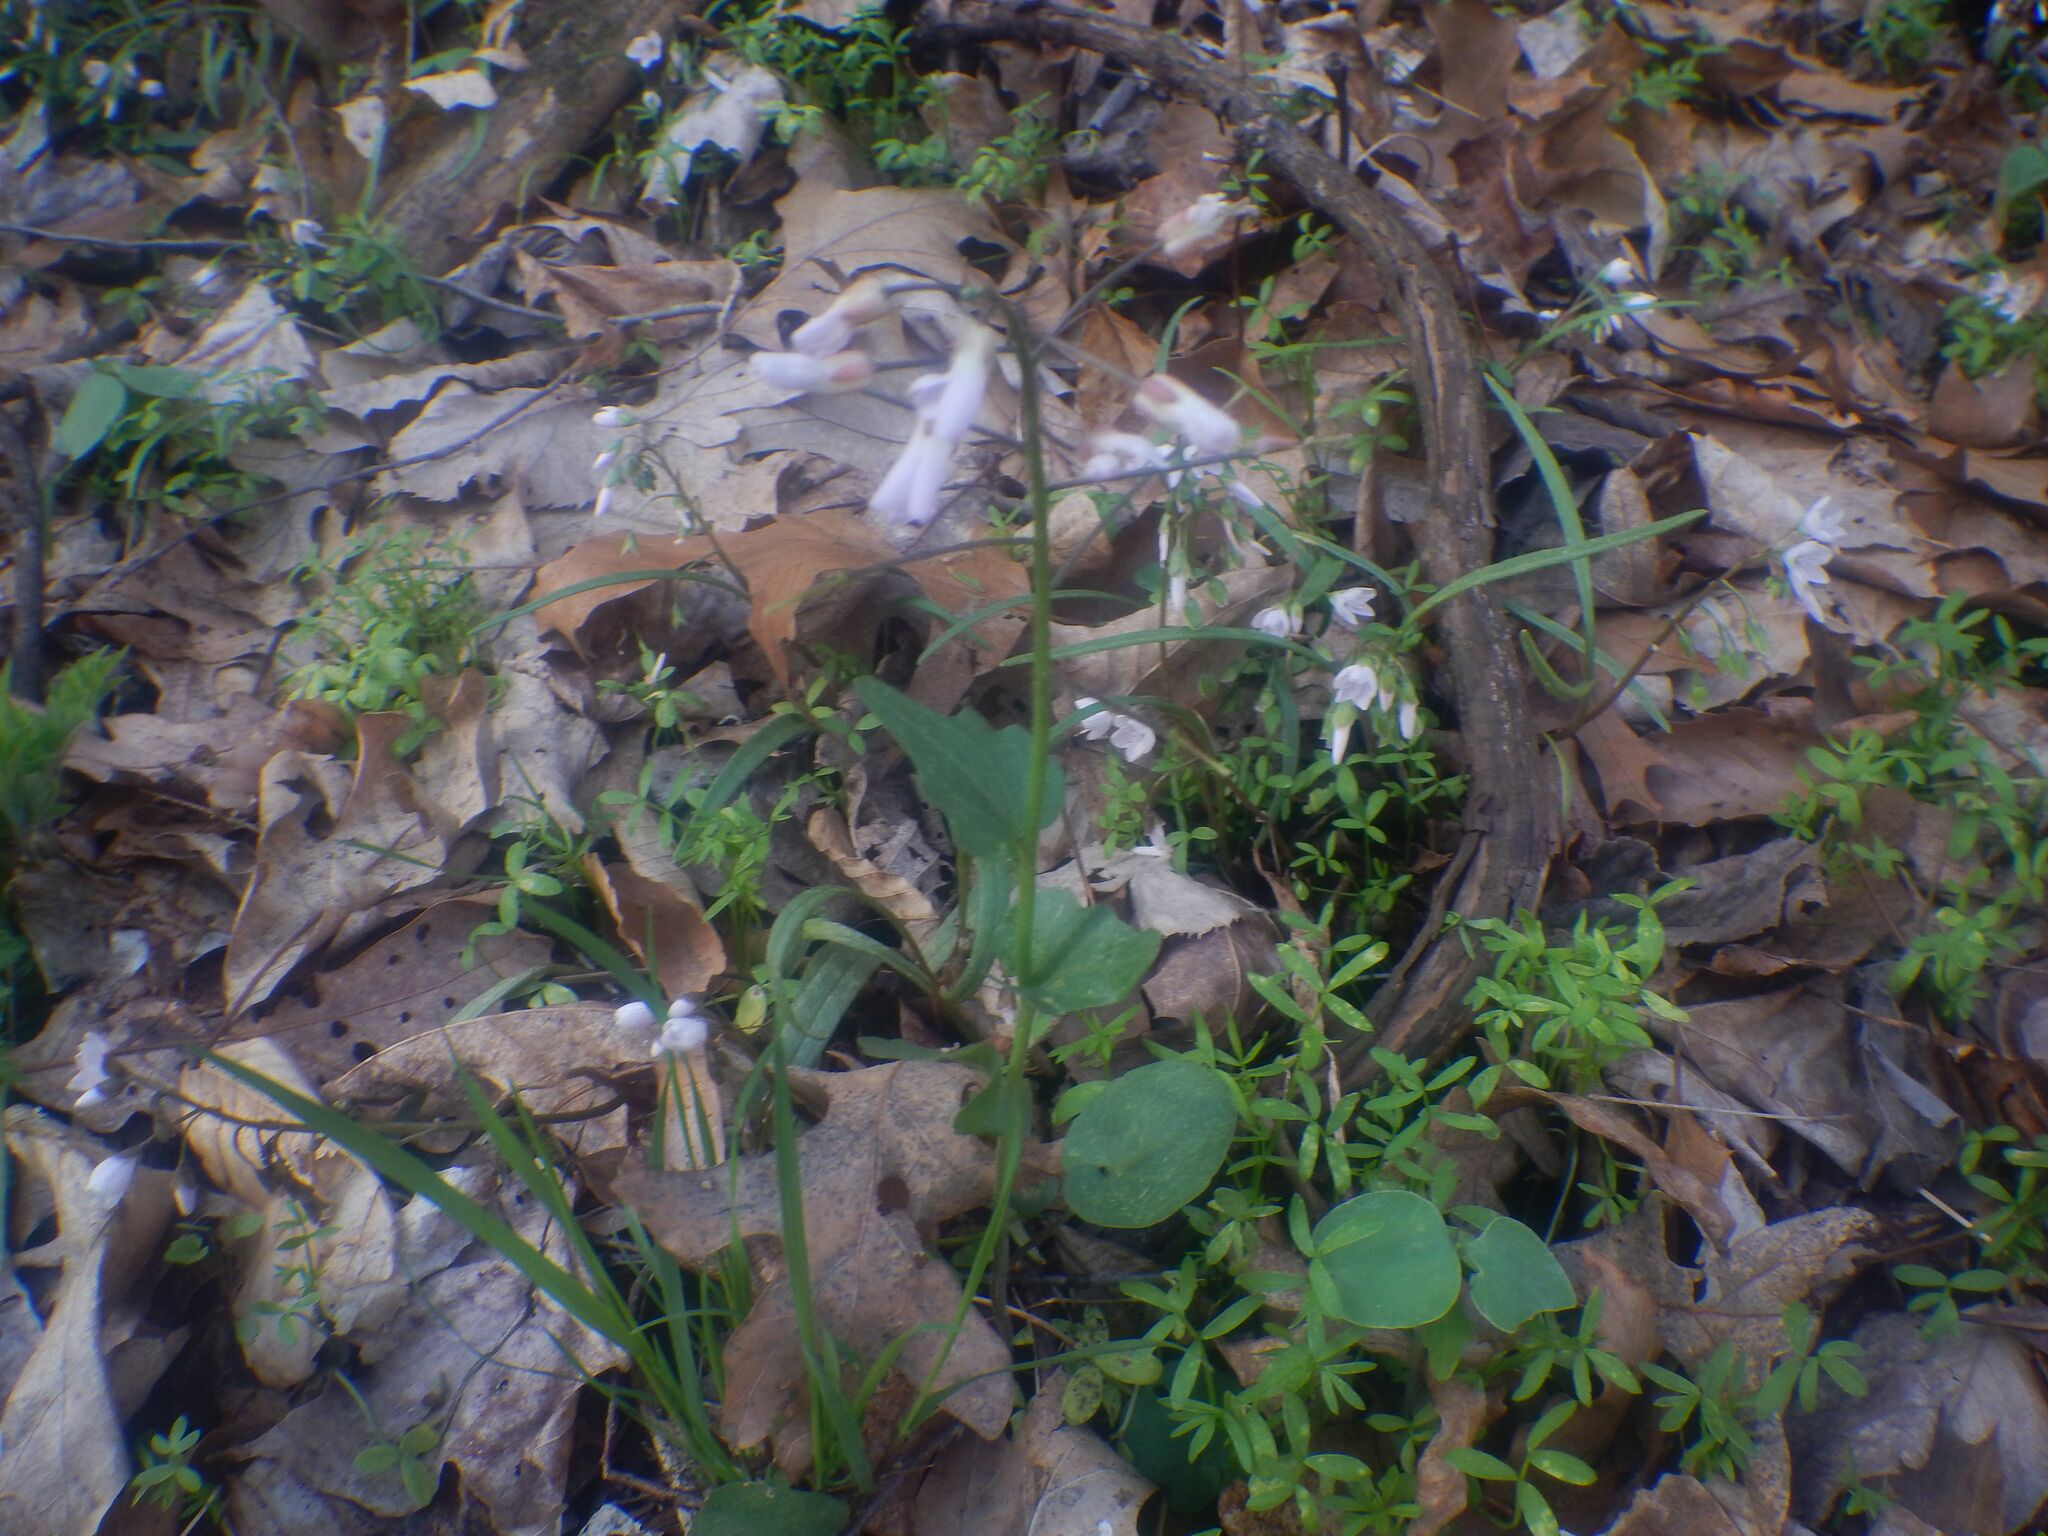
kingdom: Plantae
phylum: Tracheophyta
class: Magnoliopsida
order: Brassicales
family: Brassicaceae
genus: Cardamine
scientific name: Cardamine douglassii
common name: Purple cress
